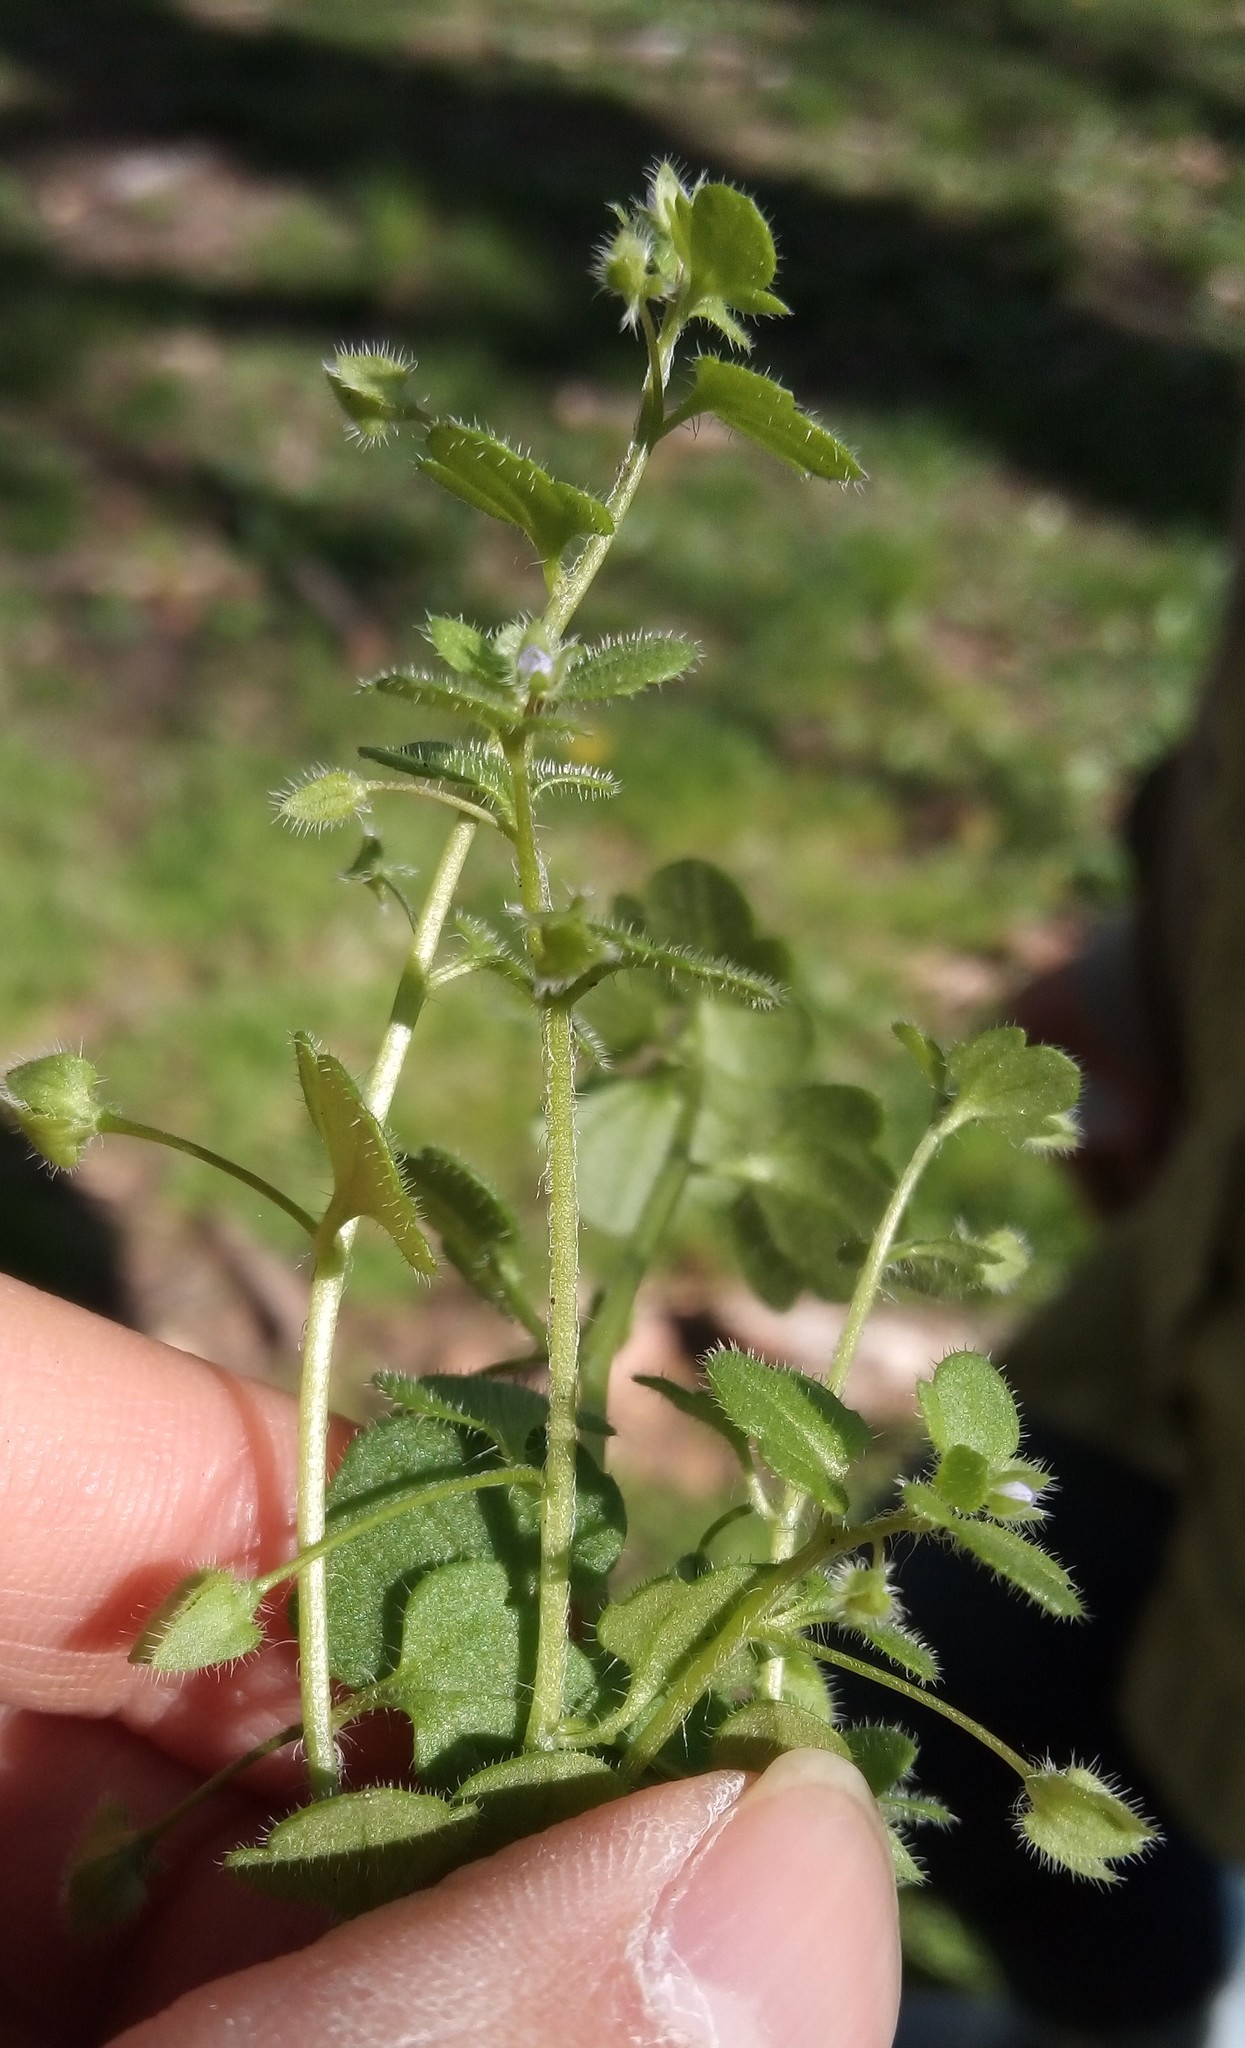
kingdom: Plantae
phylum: Tracheophyta
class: Magnoliopsida
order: Lamiales
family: Plantaginaceae
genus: Veronica
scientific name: Veronica hederifolia
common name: Ivy-leaved speedwell
